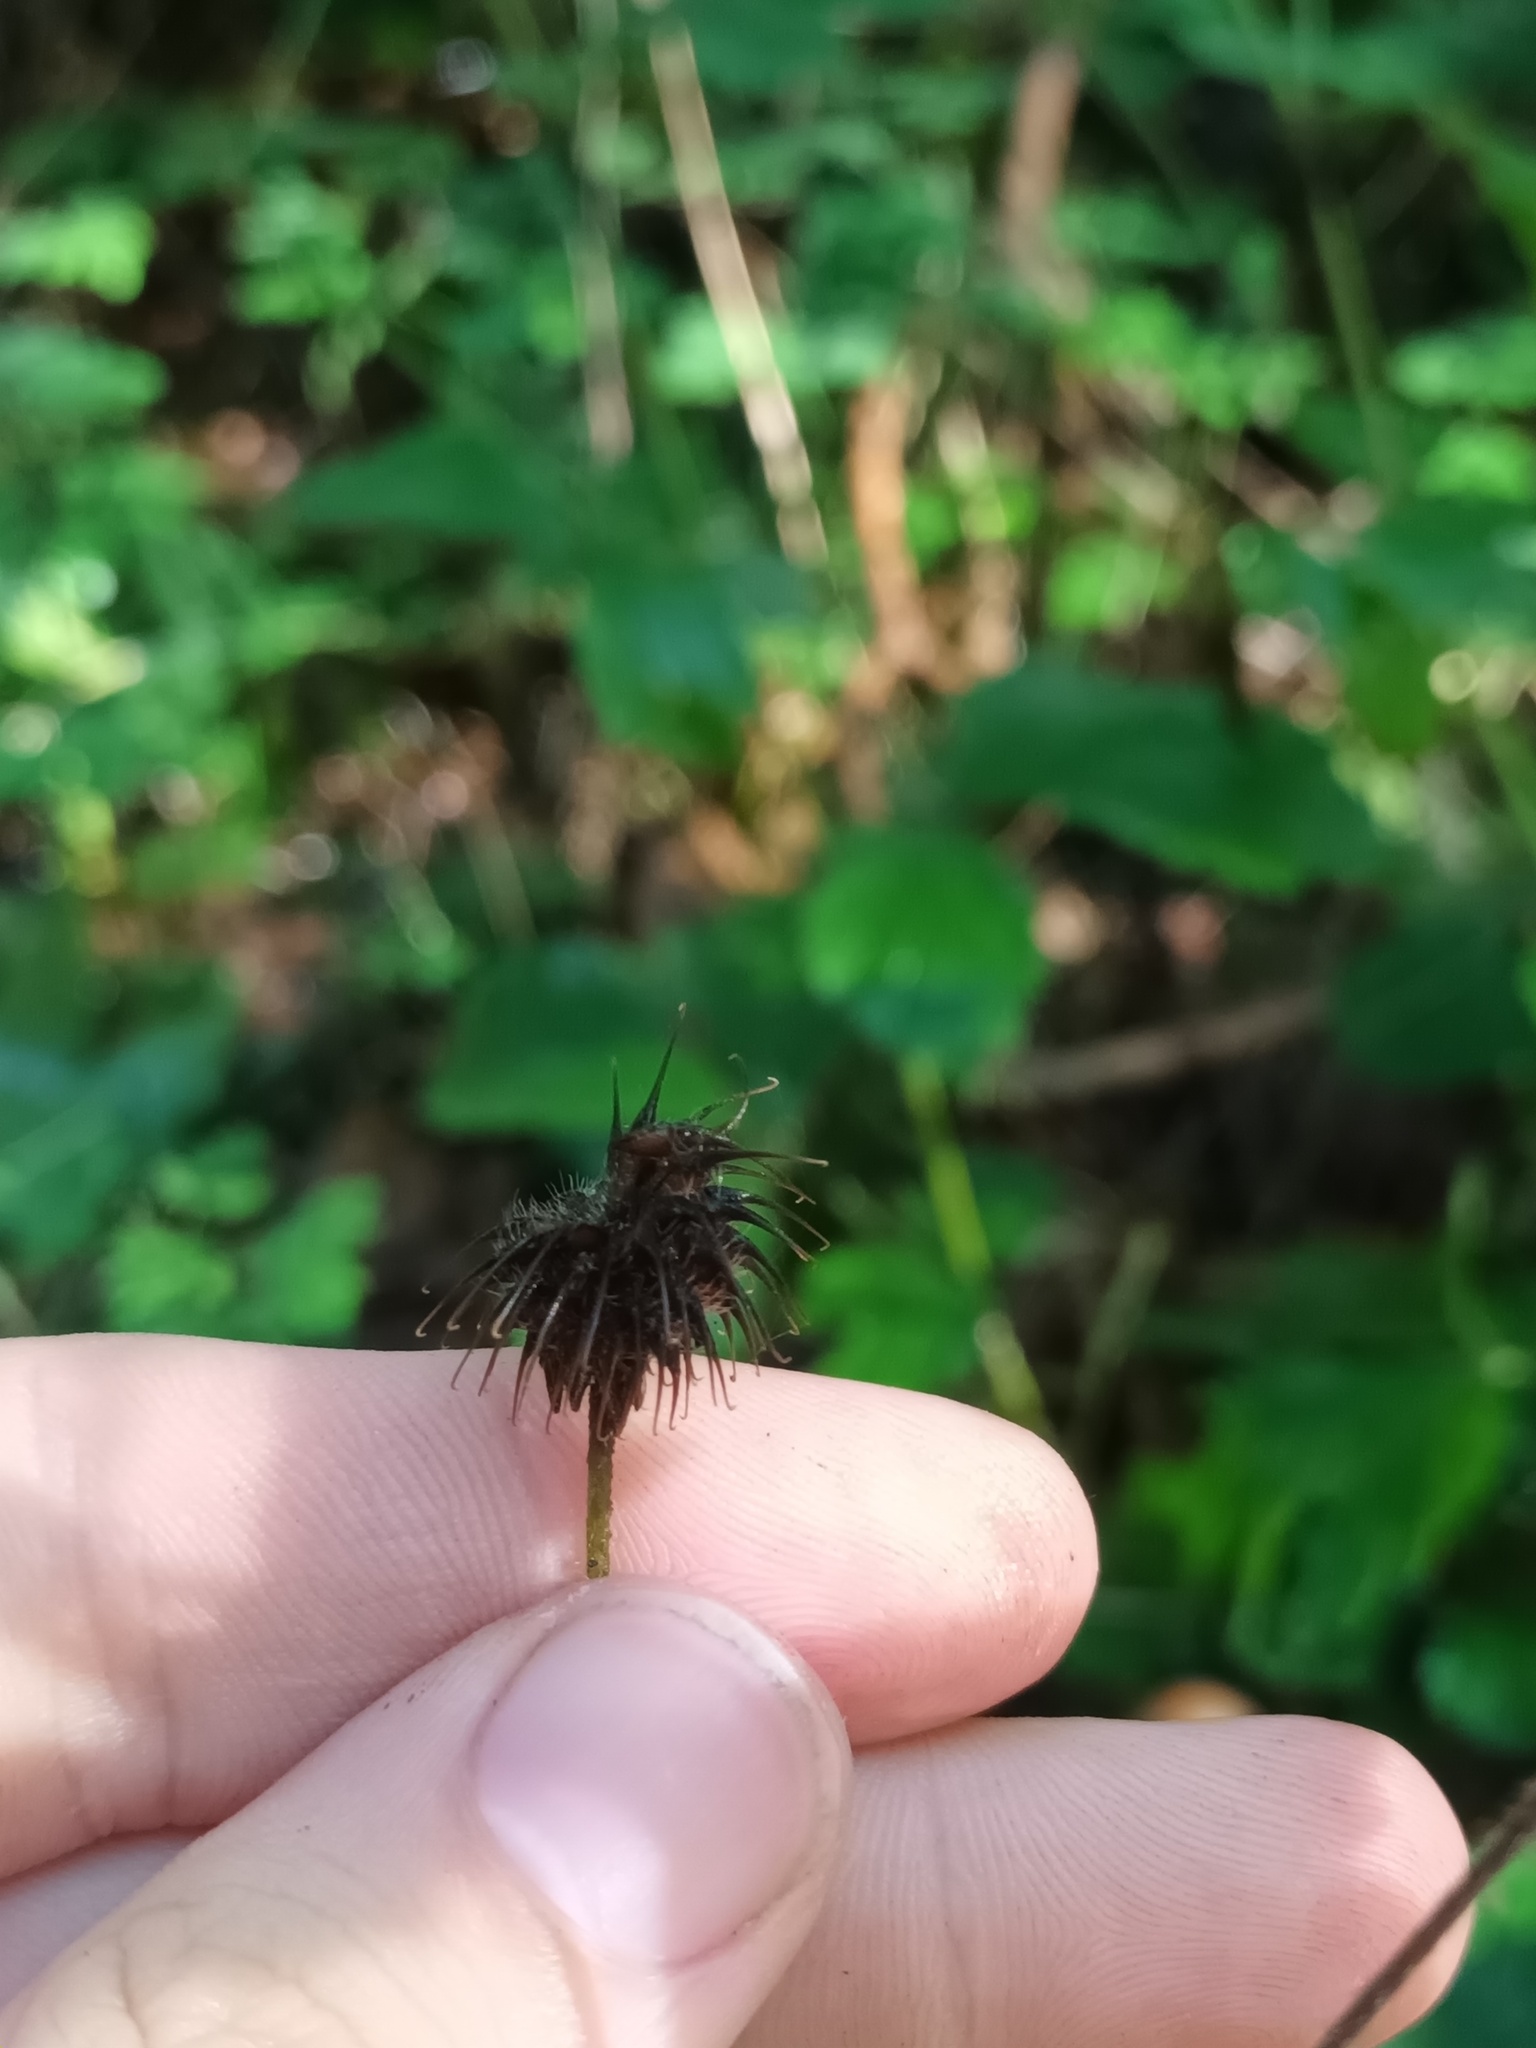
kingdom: Plantae
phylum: Tracheophyta
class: Magnoliopsida
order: Rosales
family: Rosaceae
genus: Geum
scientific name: Geum urbanum
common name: Wood avens
